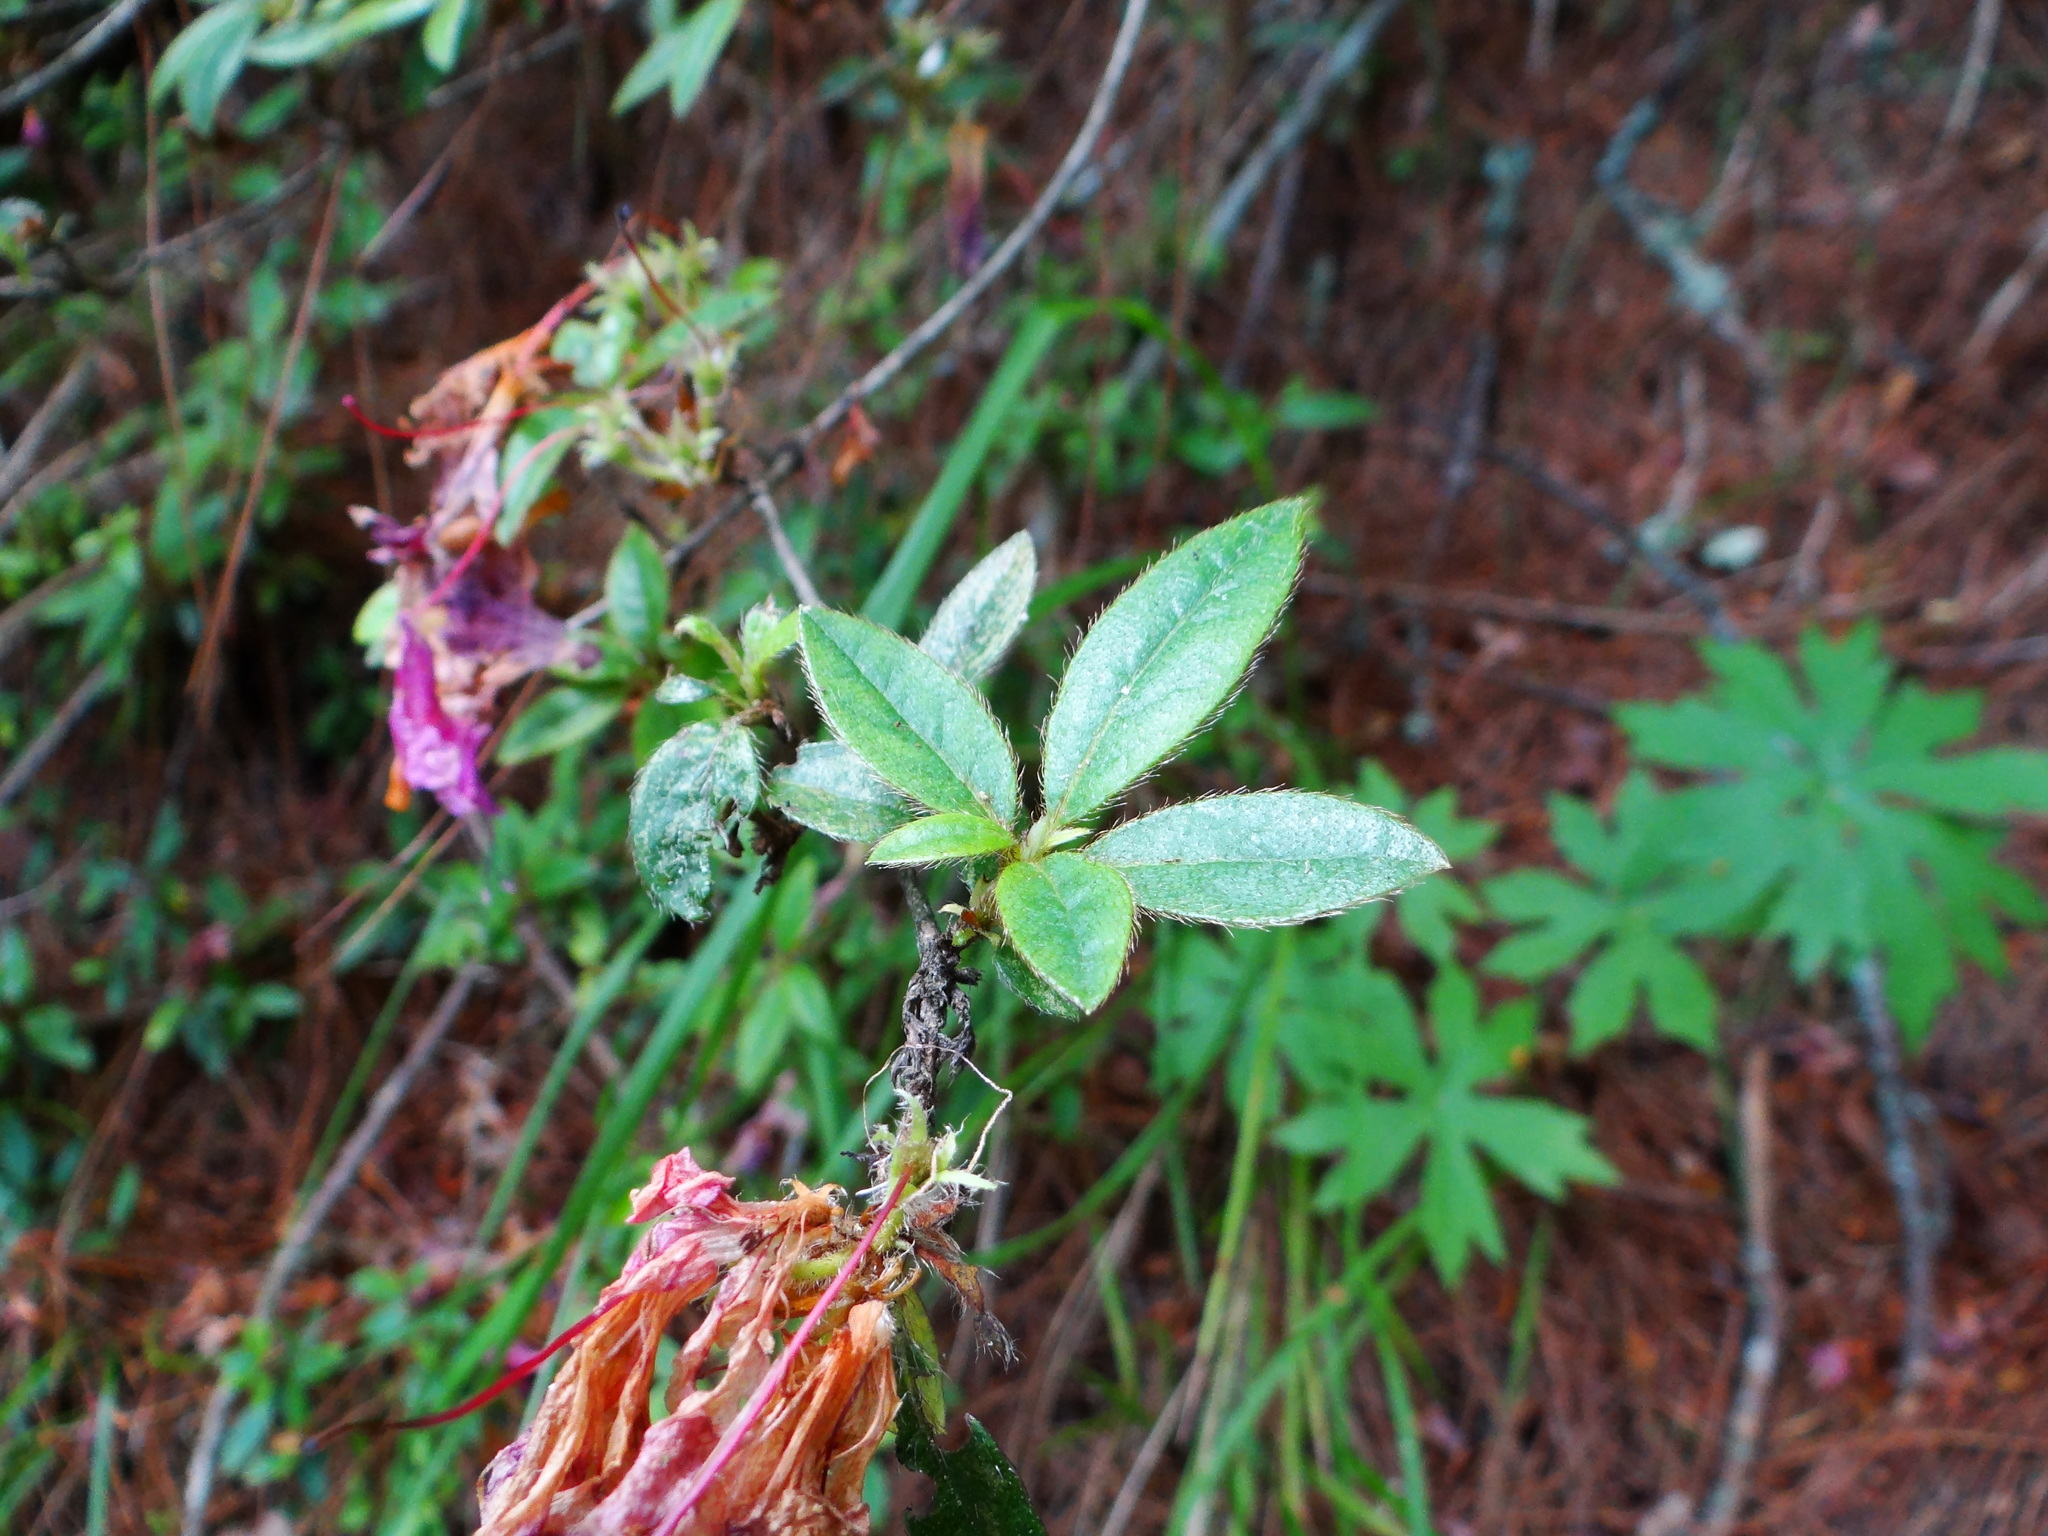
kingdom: Plantae
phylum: Tracheophyta
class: Magnoliopsida
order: Ericales
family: Ericaceae
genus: Rhododendron
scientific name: Rhododendron rubropilosum
